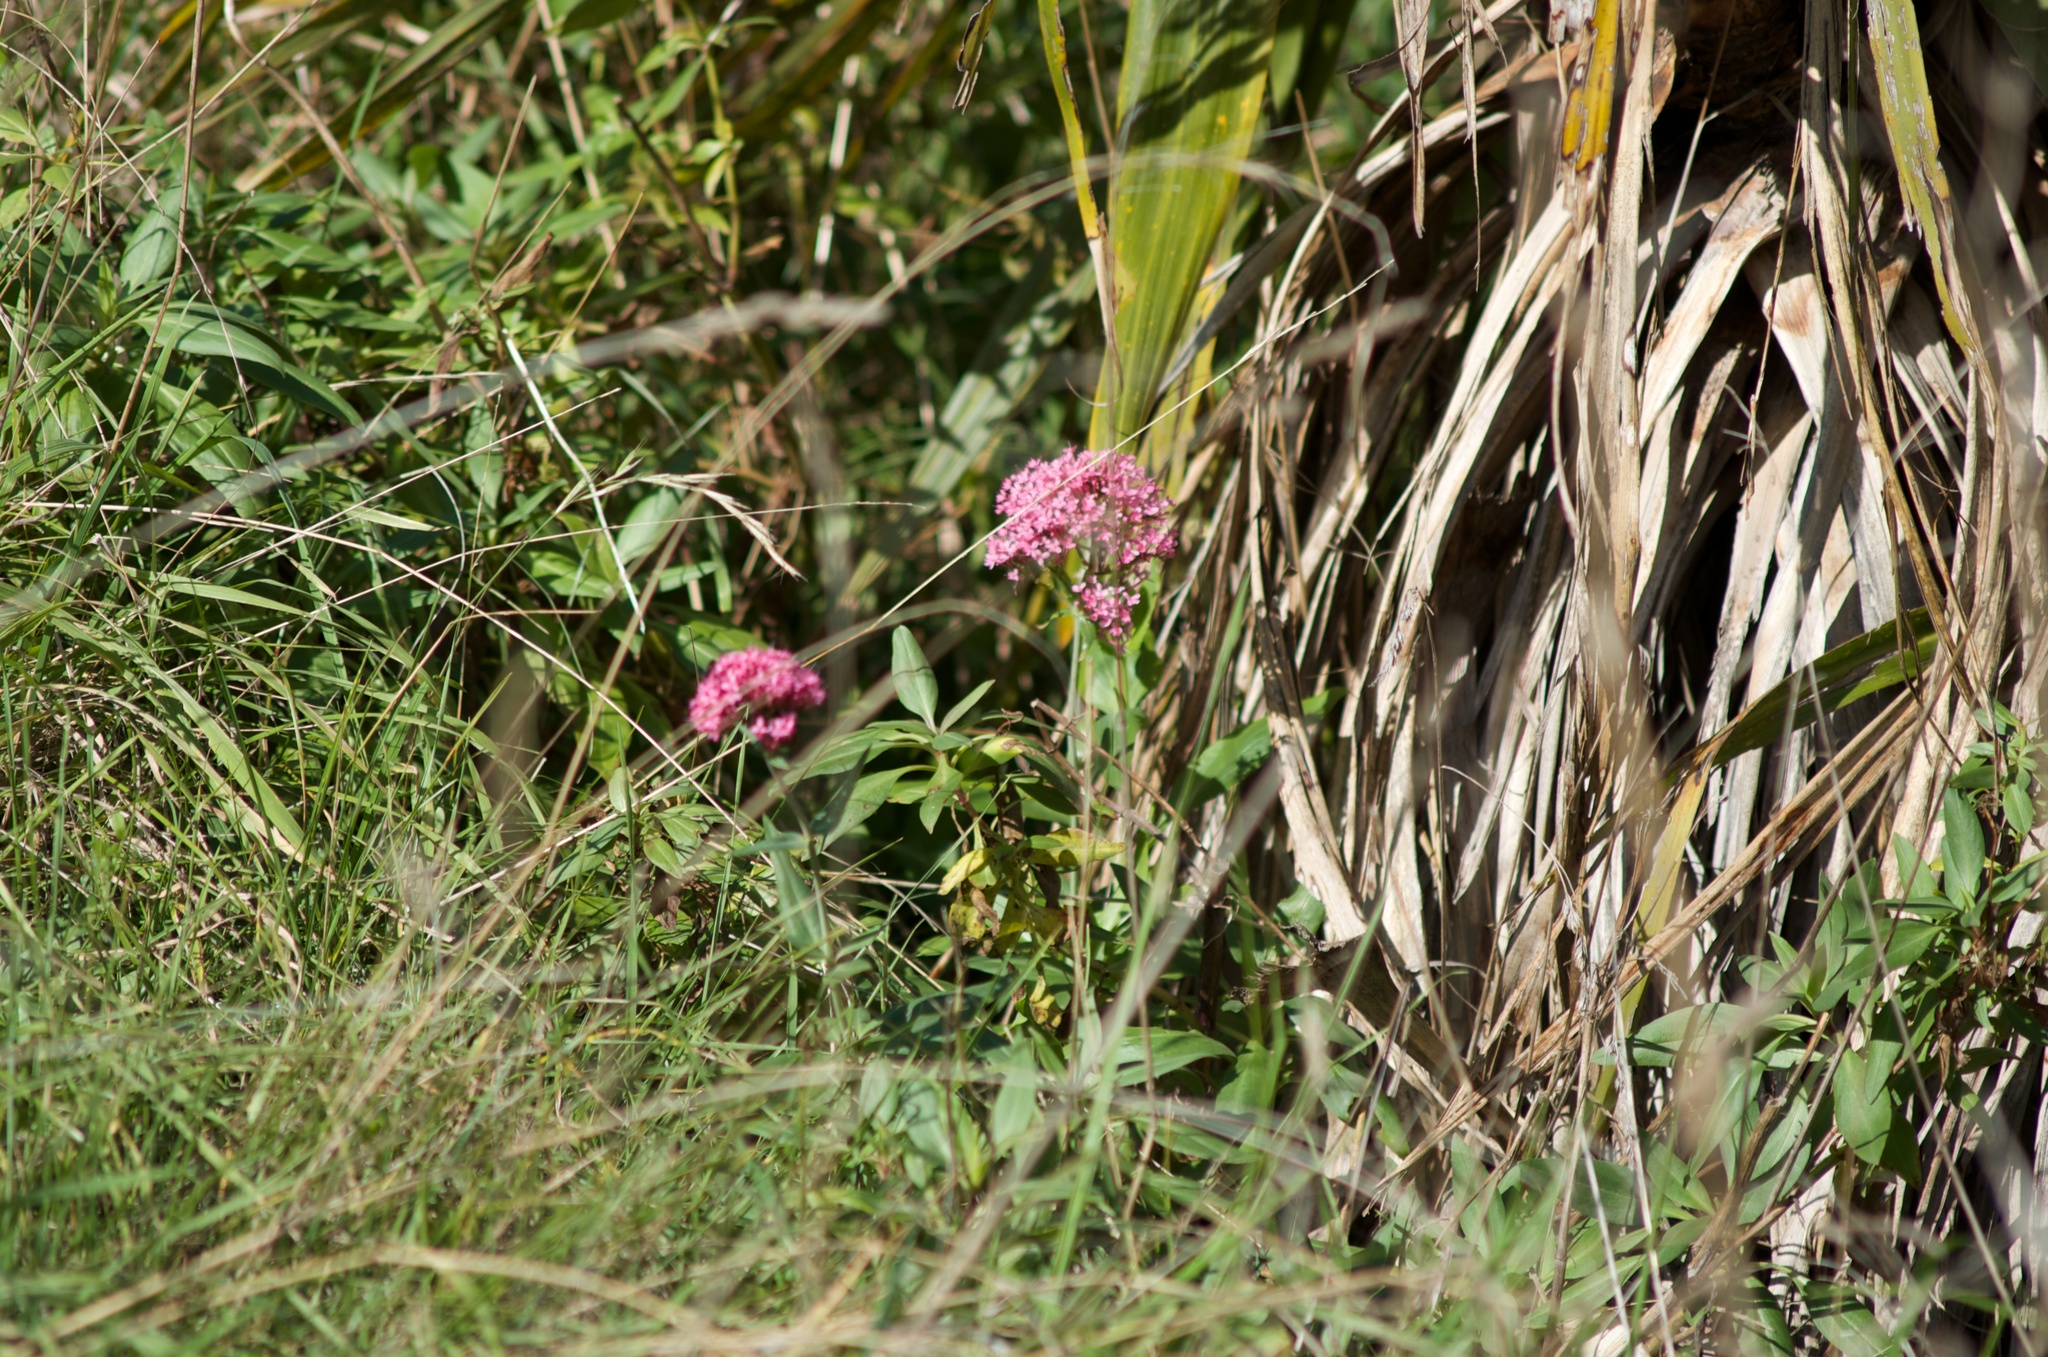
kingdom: Plantae
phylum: Tracheophyta
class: Magnoliopsida
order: Dipsacales
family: Caprifoliaceae
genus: Centranthus
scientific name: Centranthus ruber
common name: Red valerian
